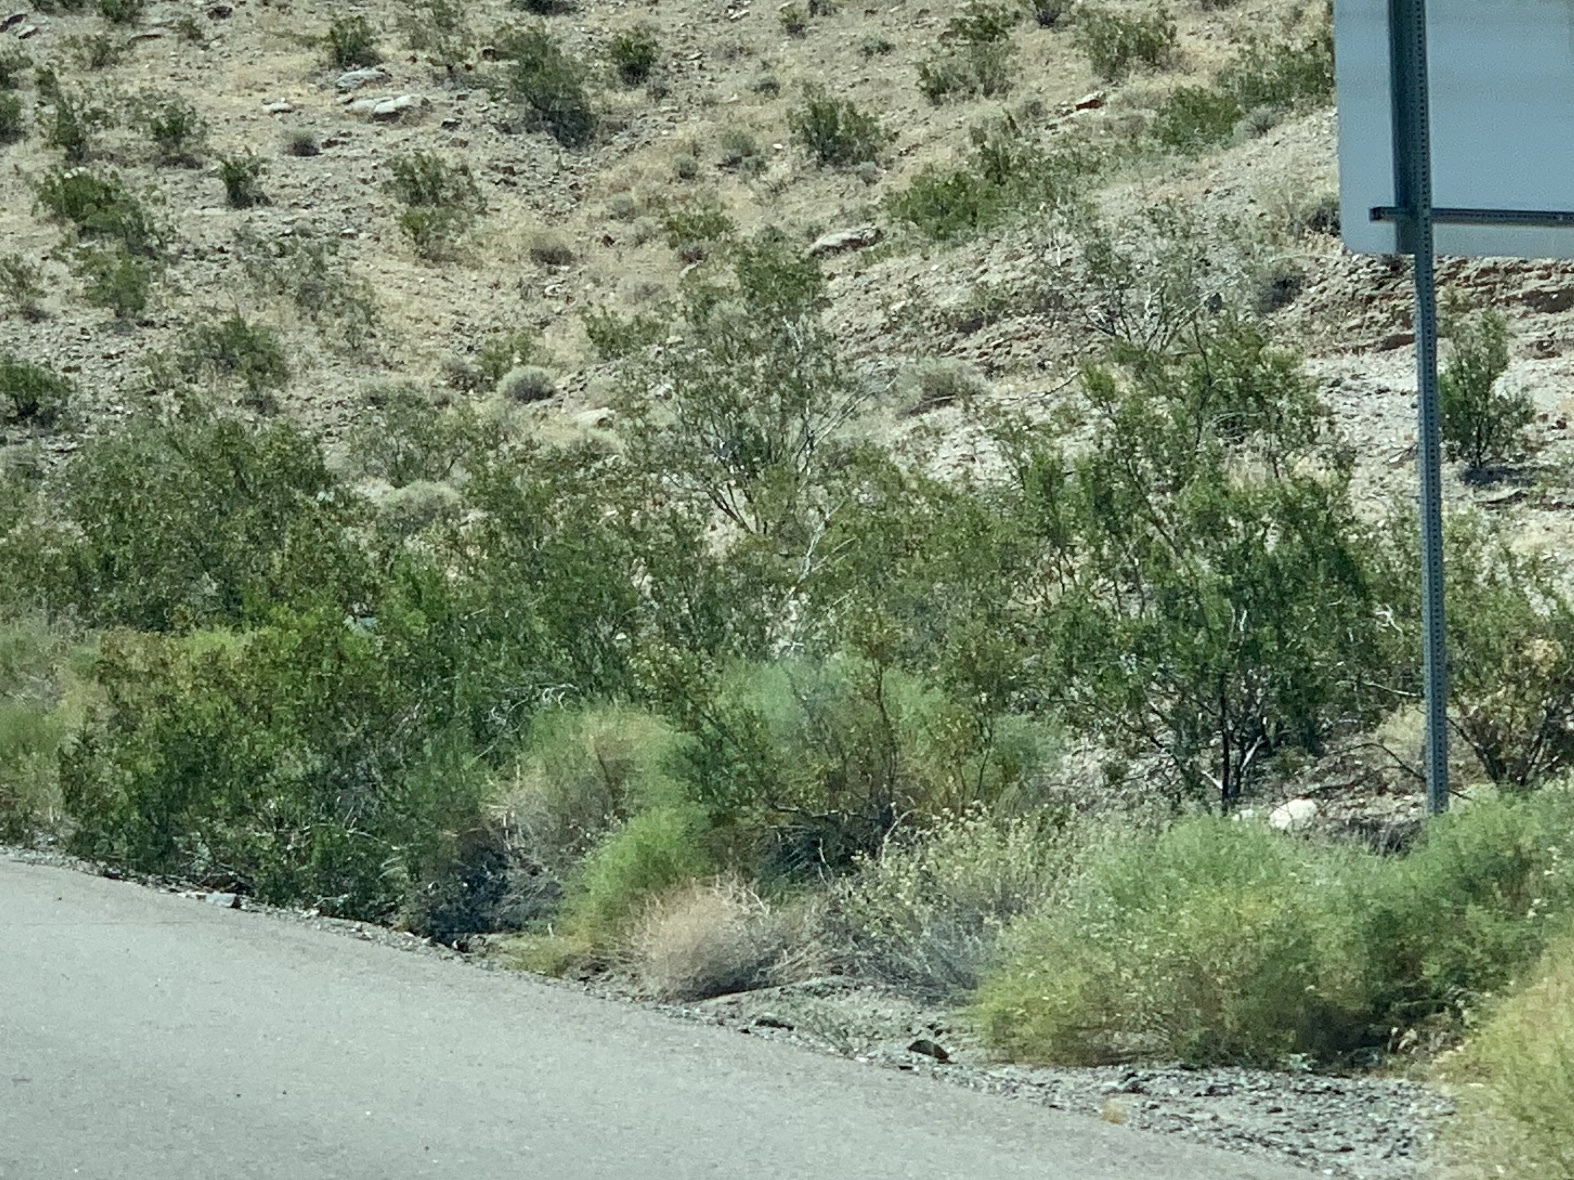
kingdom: Plantae
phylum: Tracheophyta
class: Magnoliopsida
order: Zygophyllales
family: Zygophyllaceae
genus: Larrea
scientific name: Larrea tridentata
